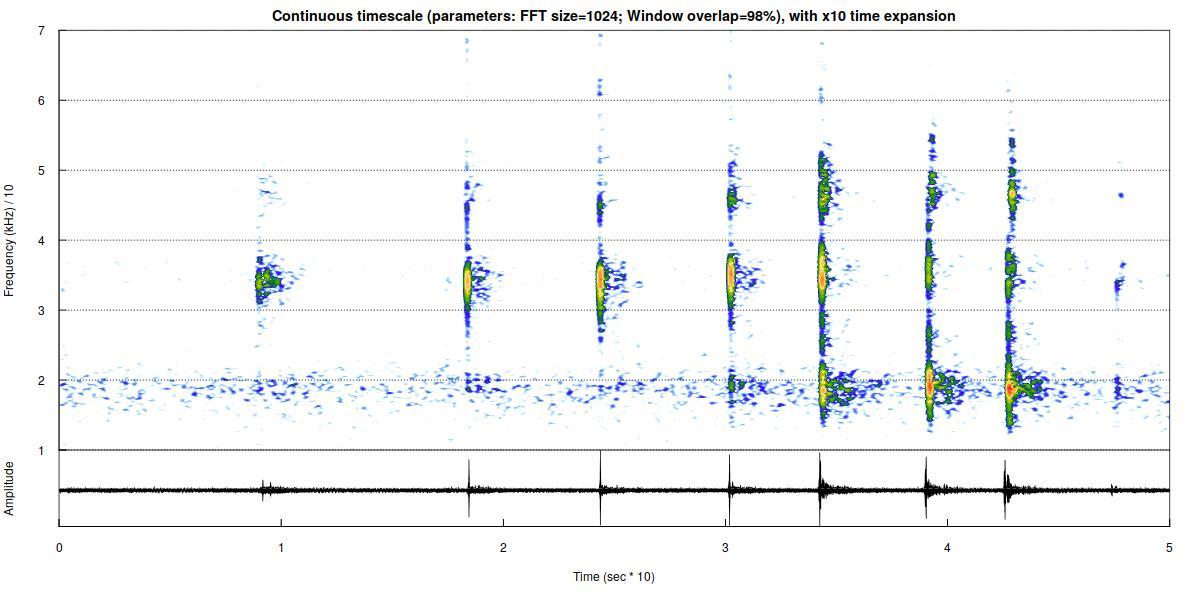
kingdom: Animalia
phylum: Chordata
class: Mammalia
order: Chiroptera
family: Vespertilionidae
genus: Myotis
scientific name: Myotis nattereri
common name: Natterer's bat
